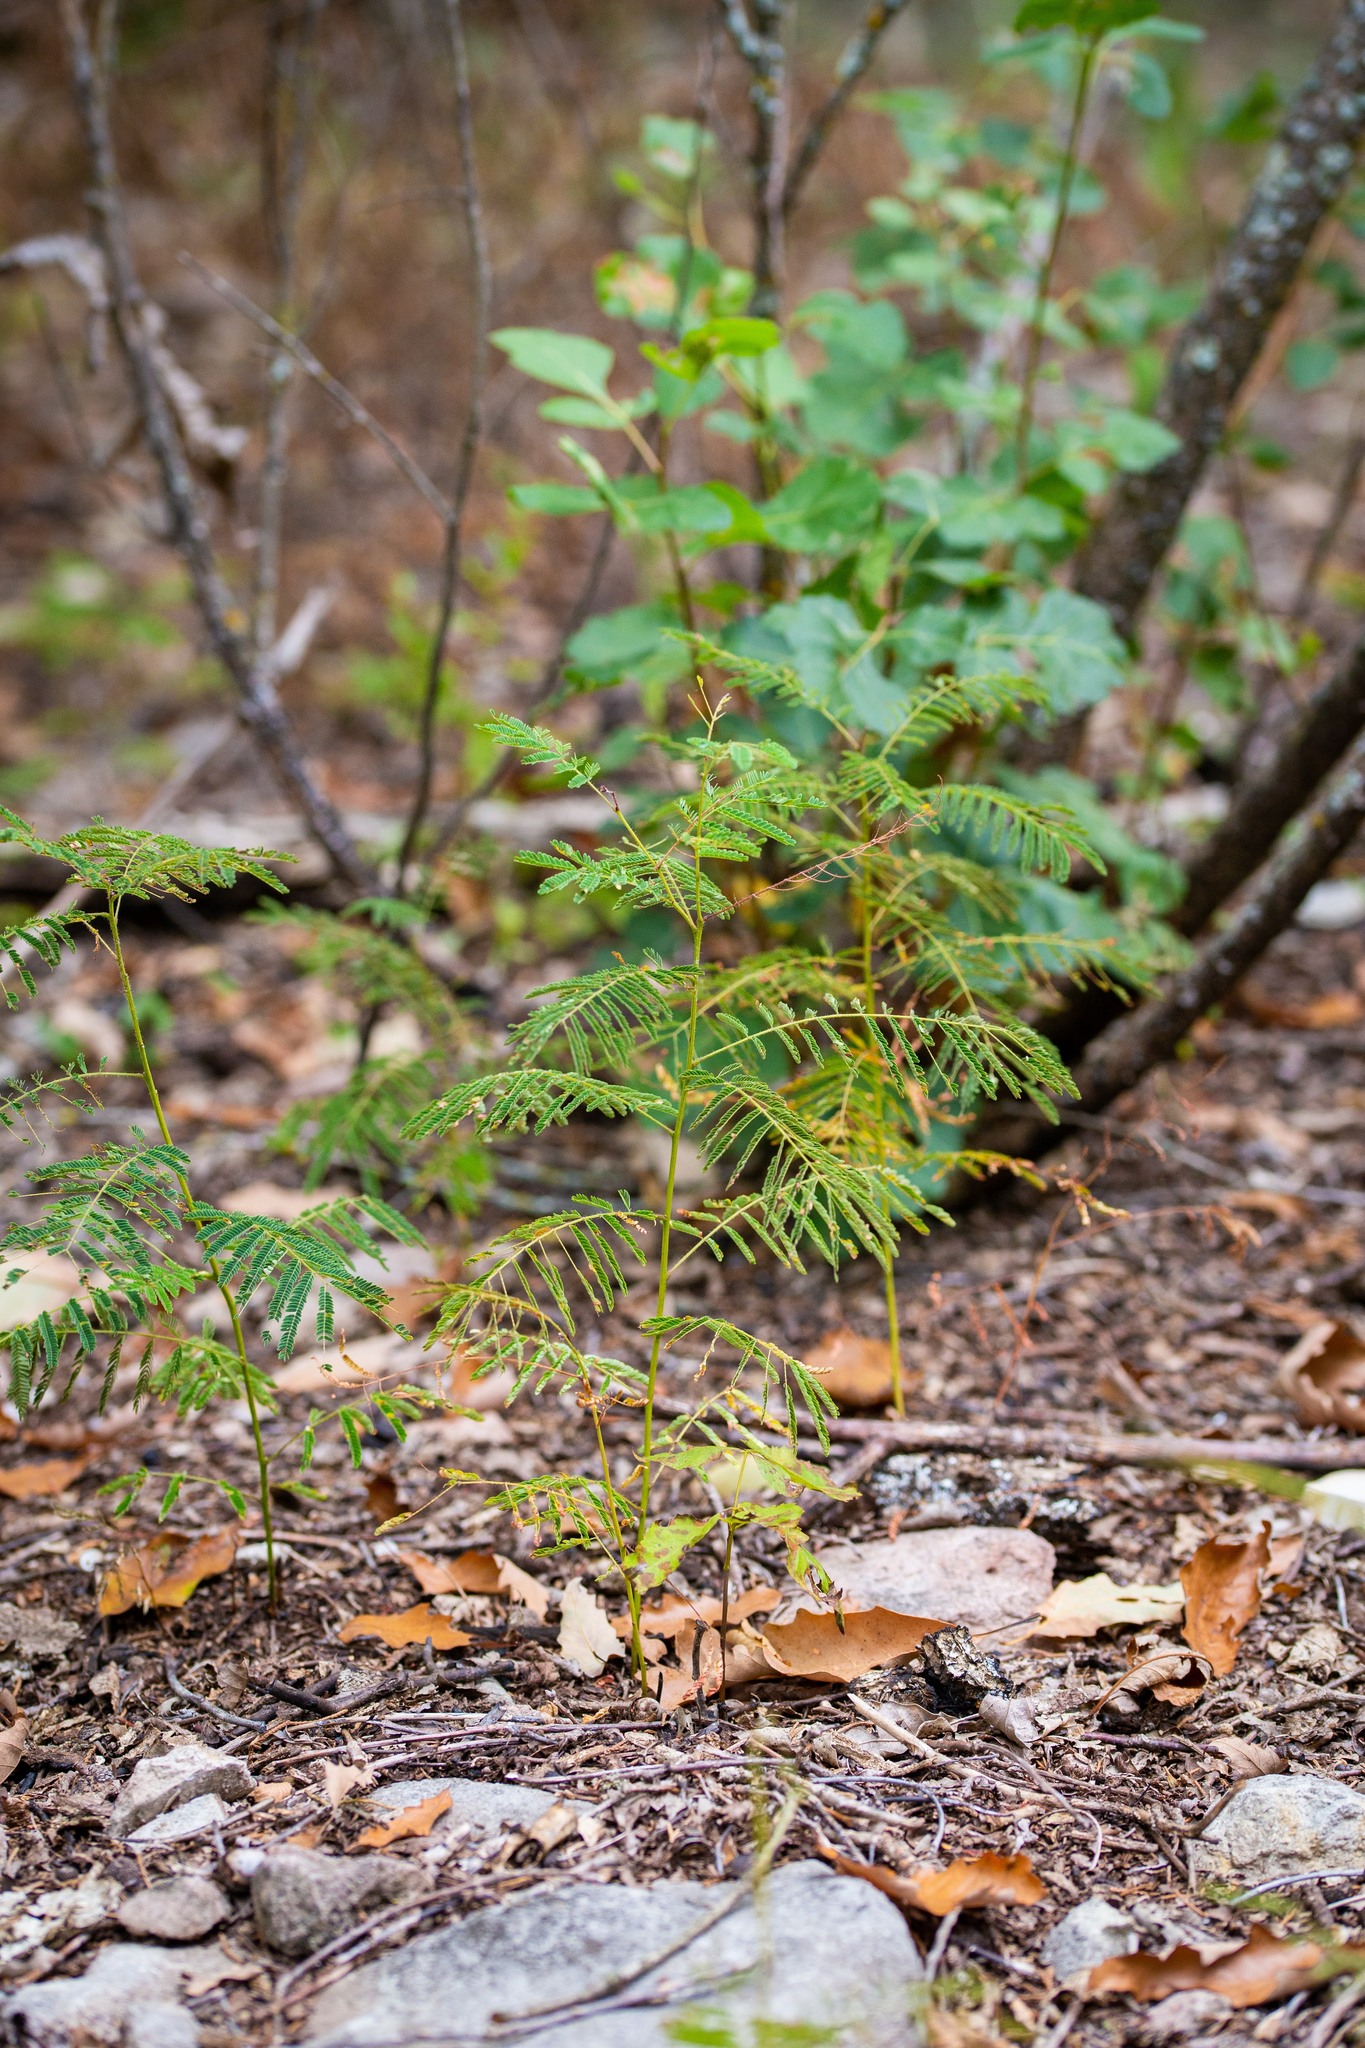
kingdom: Plantae
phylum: Tracheophyta
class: Magnoliopsida
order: Fabales
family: Fabaceae
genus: Acaciella
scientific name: Acaciella angustissima
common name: Prairie acacia
